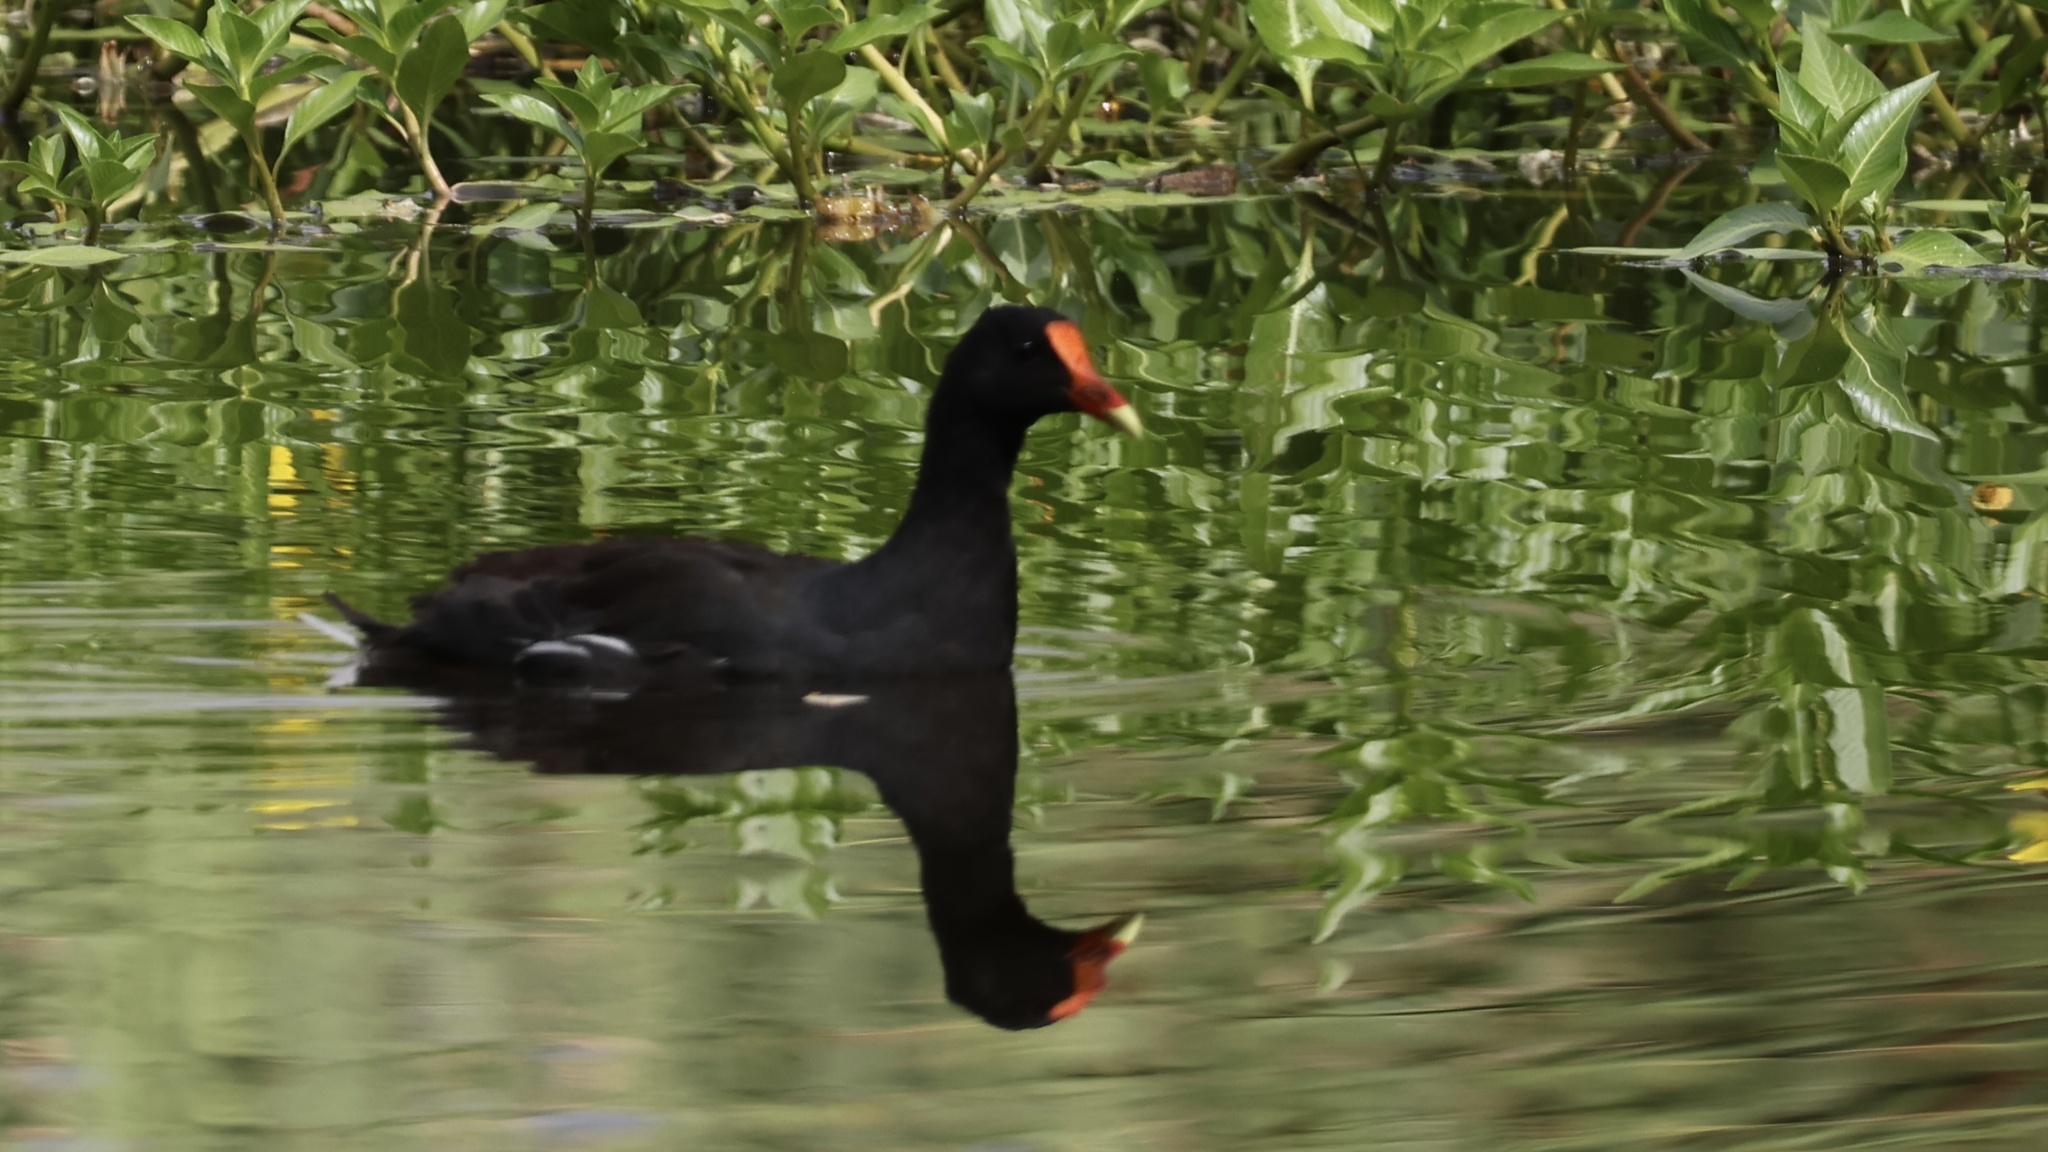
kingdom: Animalia
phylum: Chordata
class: Aves
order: Gruiformes
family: Rallidae
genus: Gallinula
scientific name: Gallinula chloropus
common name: Common moorhen
